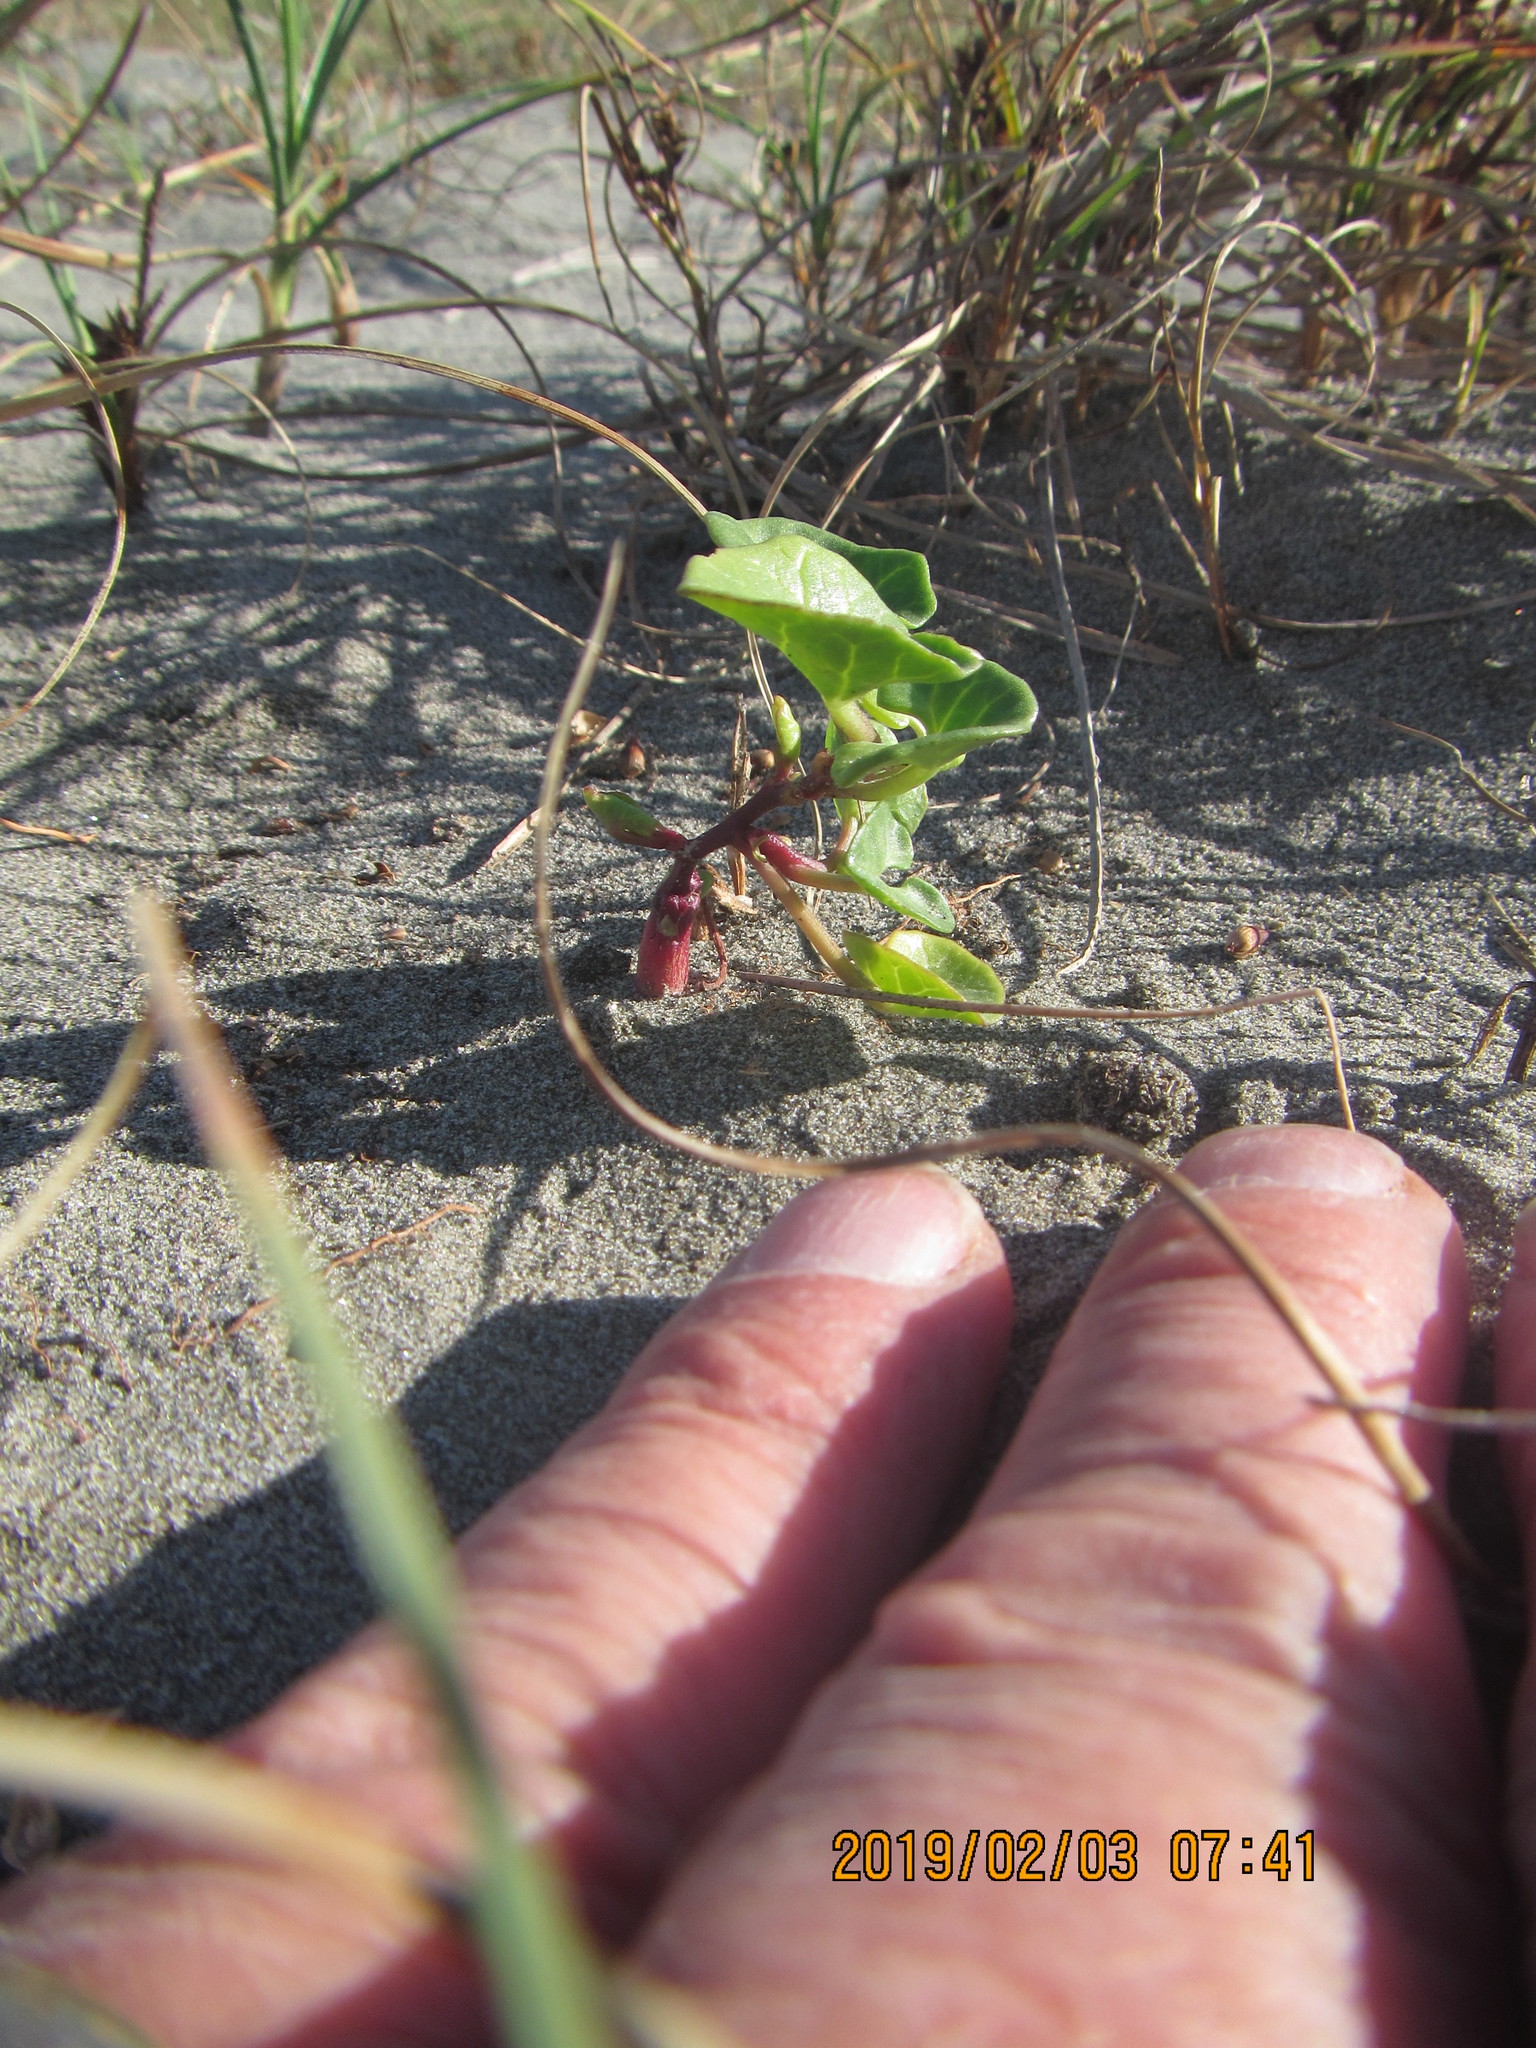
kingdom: Plantae
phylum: Tracheophyta
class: Magnoliopsida
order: Solanales
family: Convolvulaceae
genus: Calystegia
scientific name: Calystegia soldanella
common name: Sea bindweed
